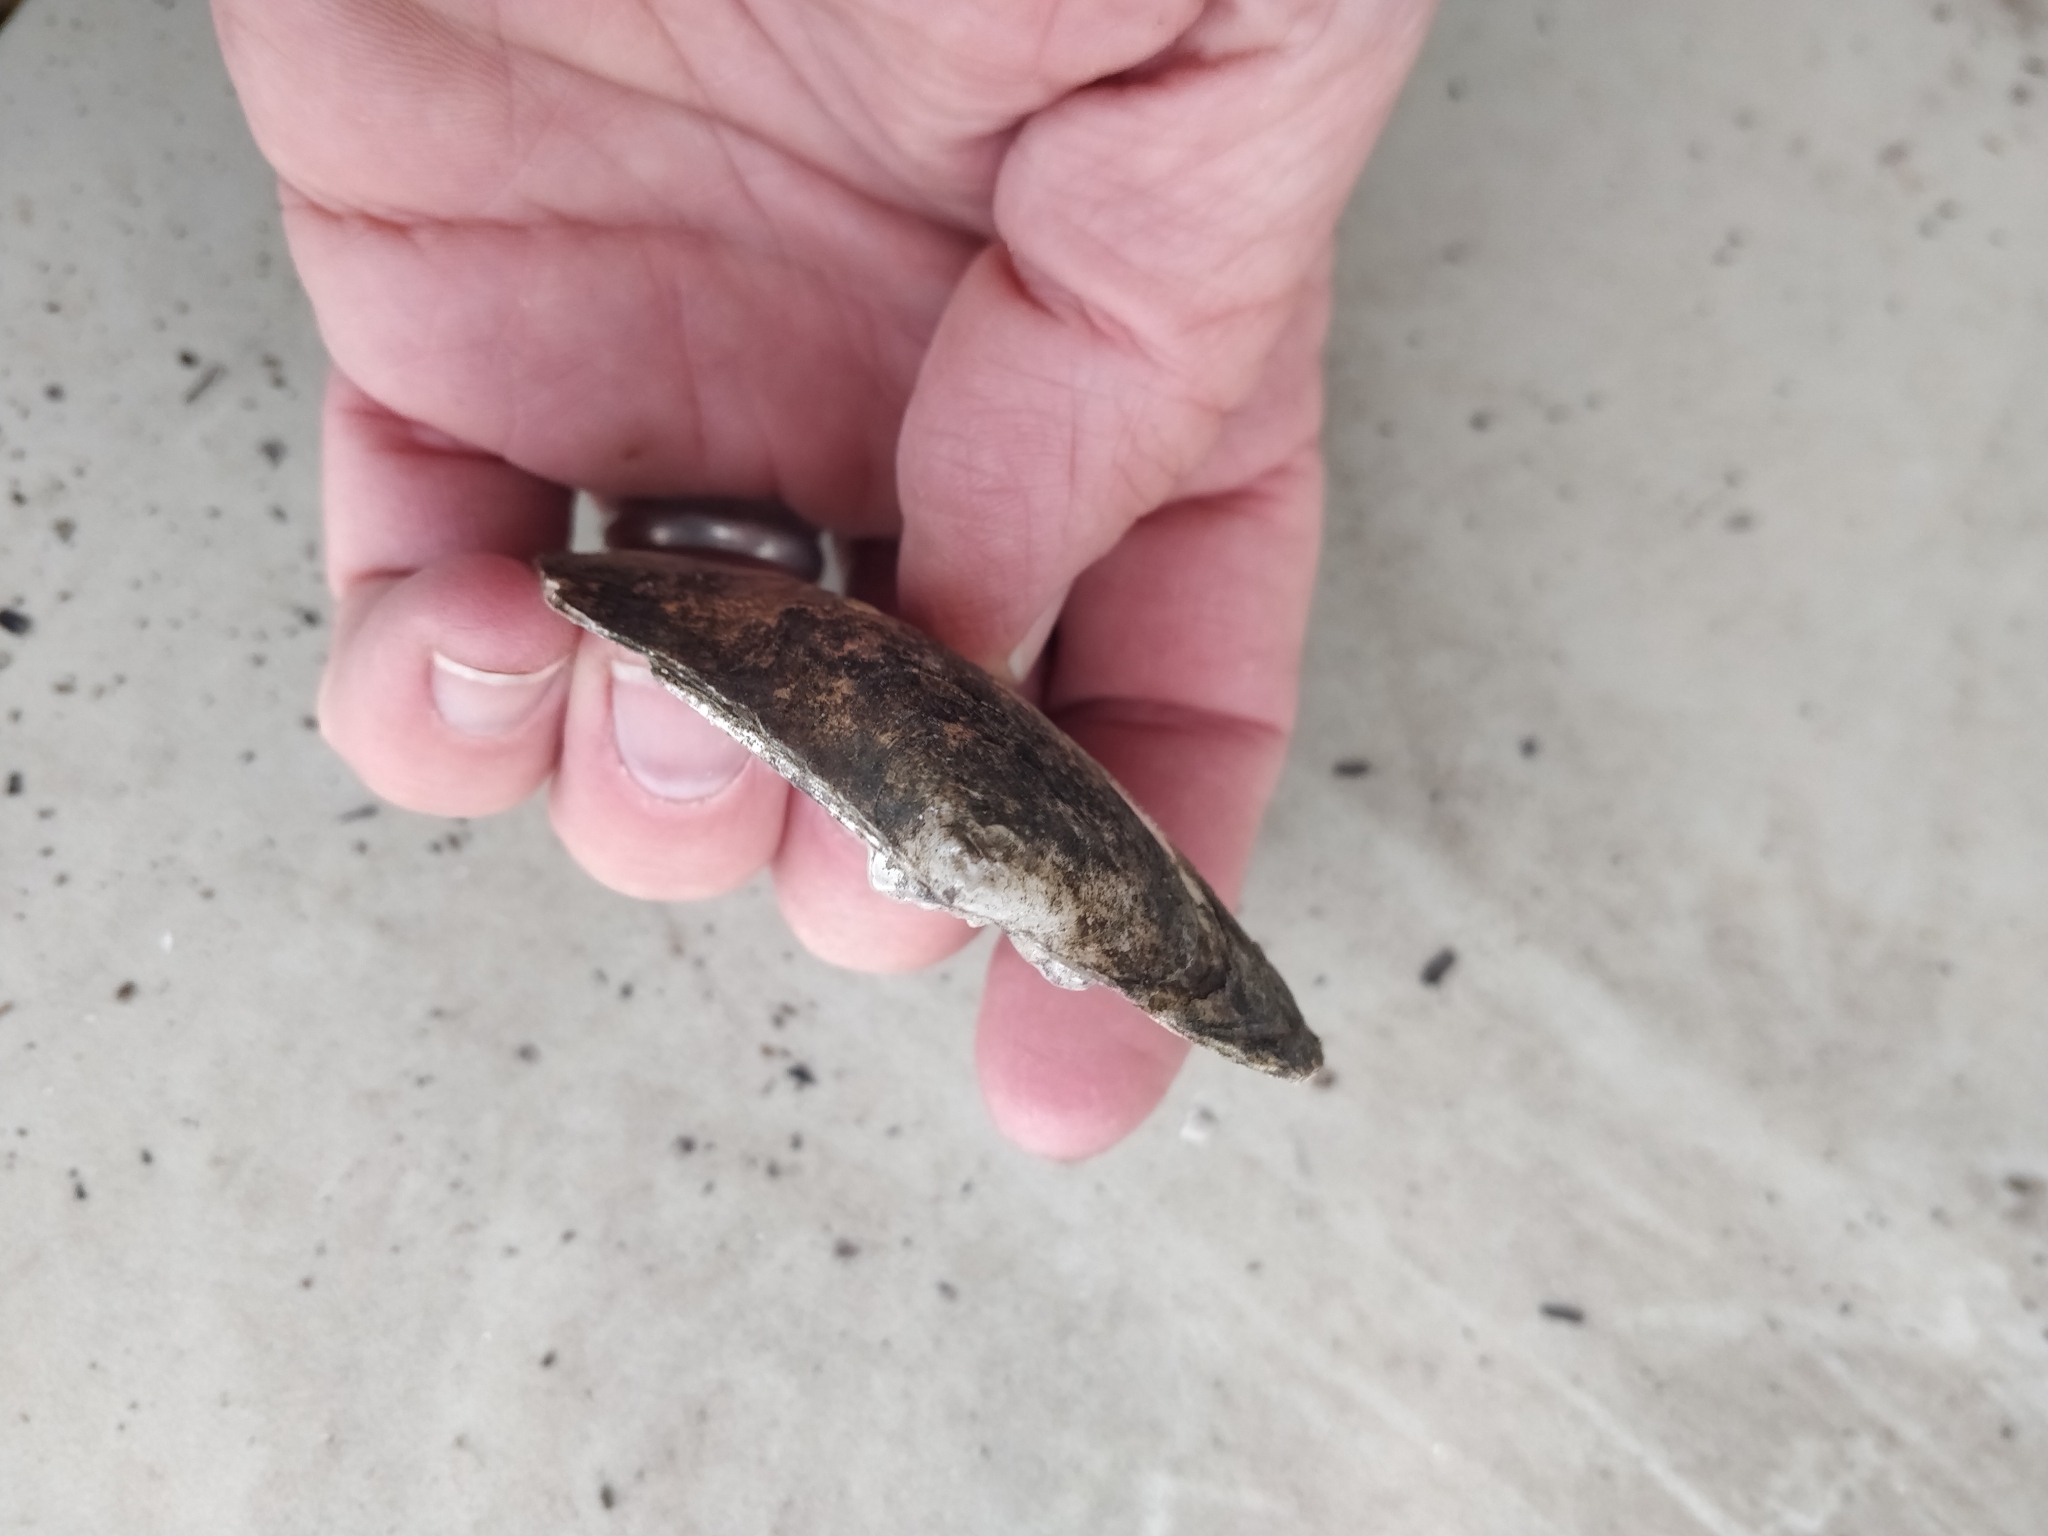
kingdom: Animalia
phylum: Mollusca
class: Bivalvia
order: Unionida
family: Unionidae
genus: Lasmigona
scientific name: Lasmigona complanata
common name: White heelsplitter
